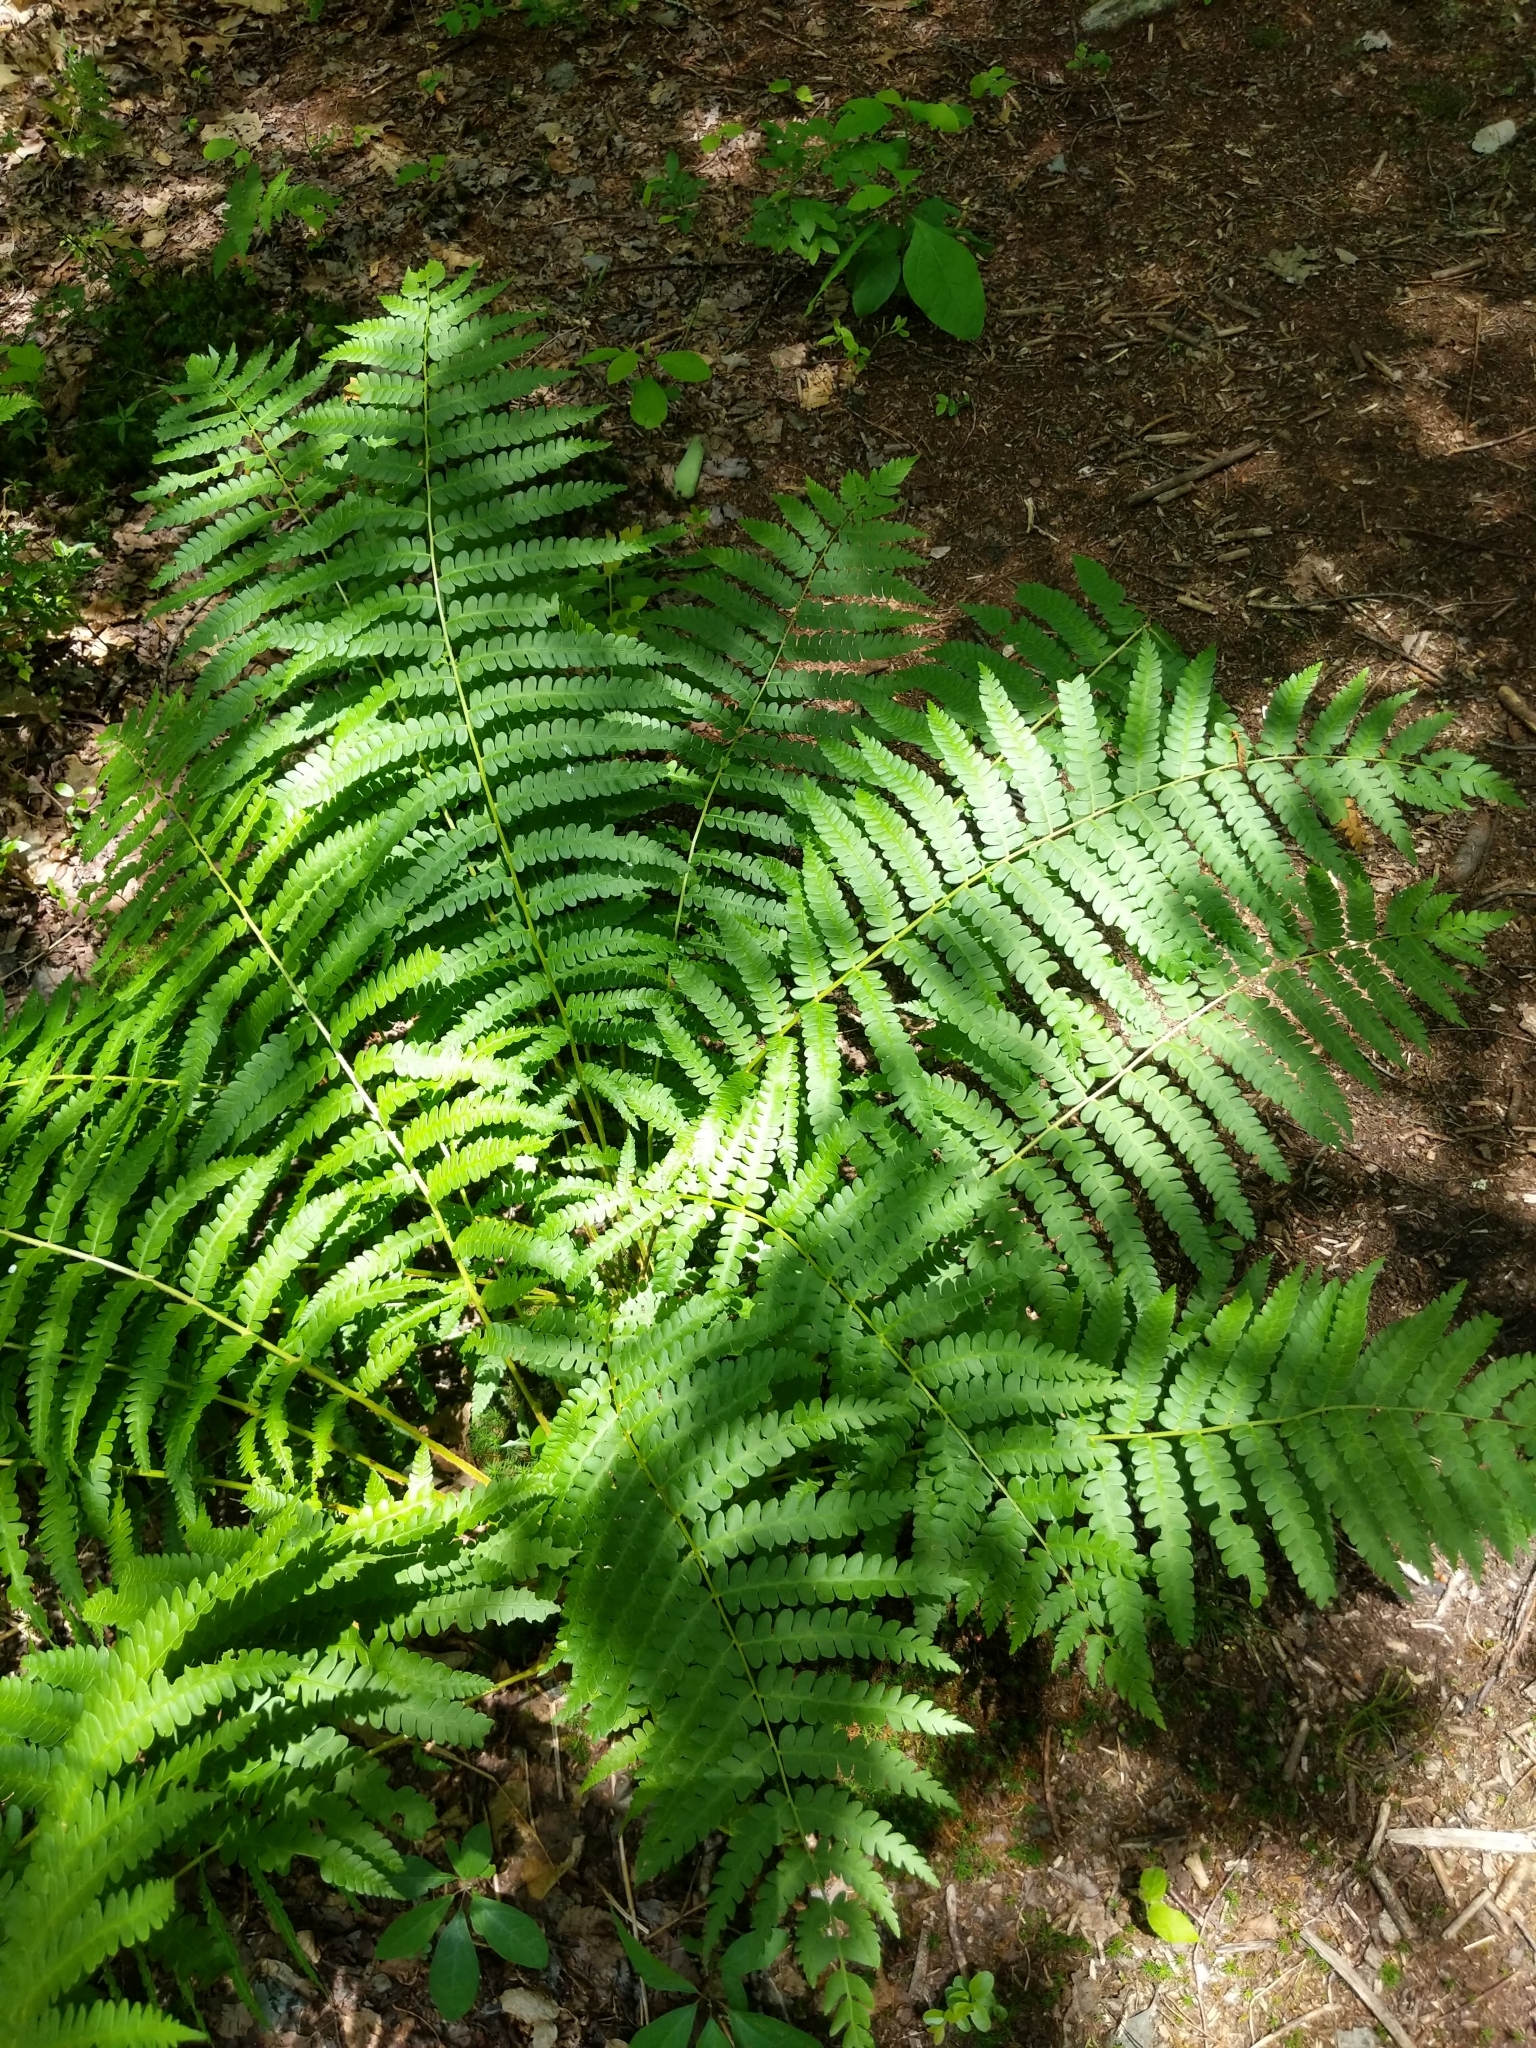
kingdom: Plantae
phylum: Tracheophyta
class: Polypodiopsida
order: Osmundales
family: Osmundaceae
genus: Osmundastrum
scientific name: Osmundastrum cinnamomeum
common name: Cinnamon fern
